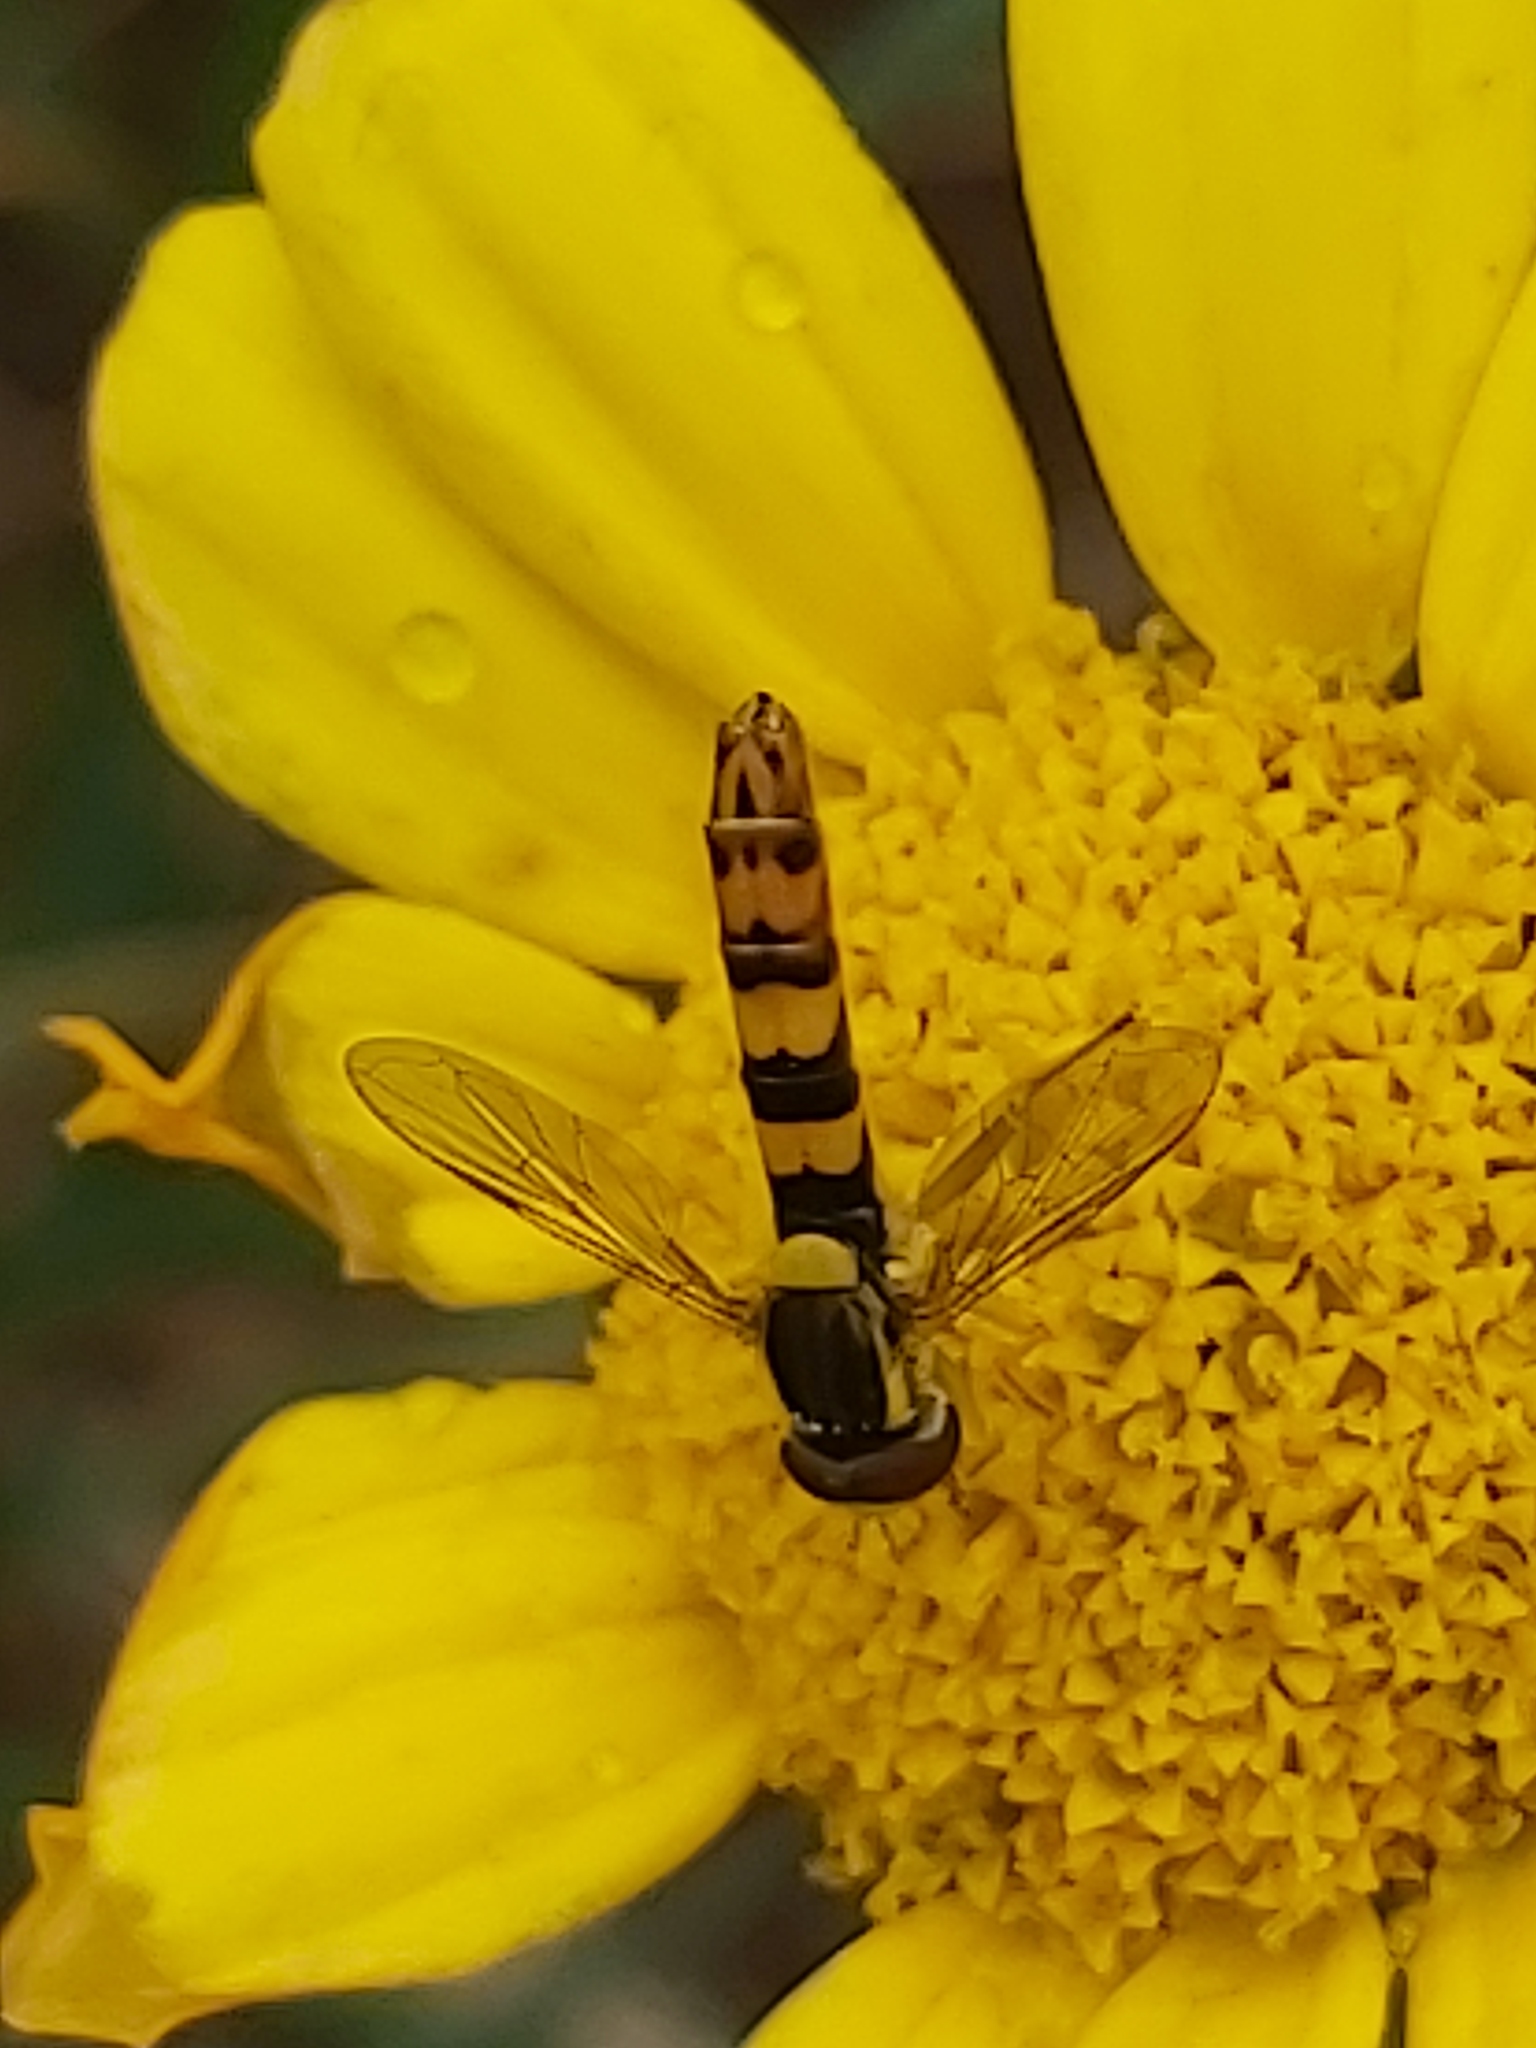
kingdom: Animalia
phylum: Arthropoda
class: Insecta
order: Diptera
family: Syrphidae
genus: Sphaerophoria
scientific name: Sphaerophoria scripta
